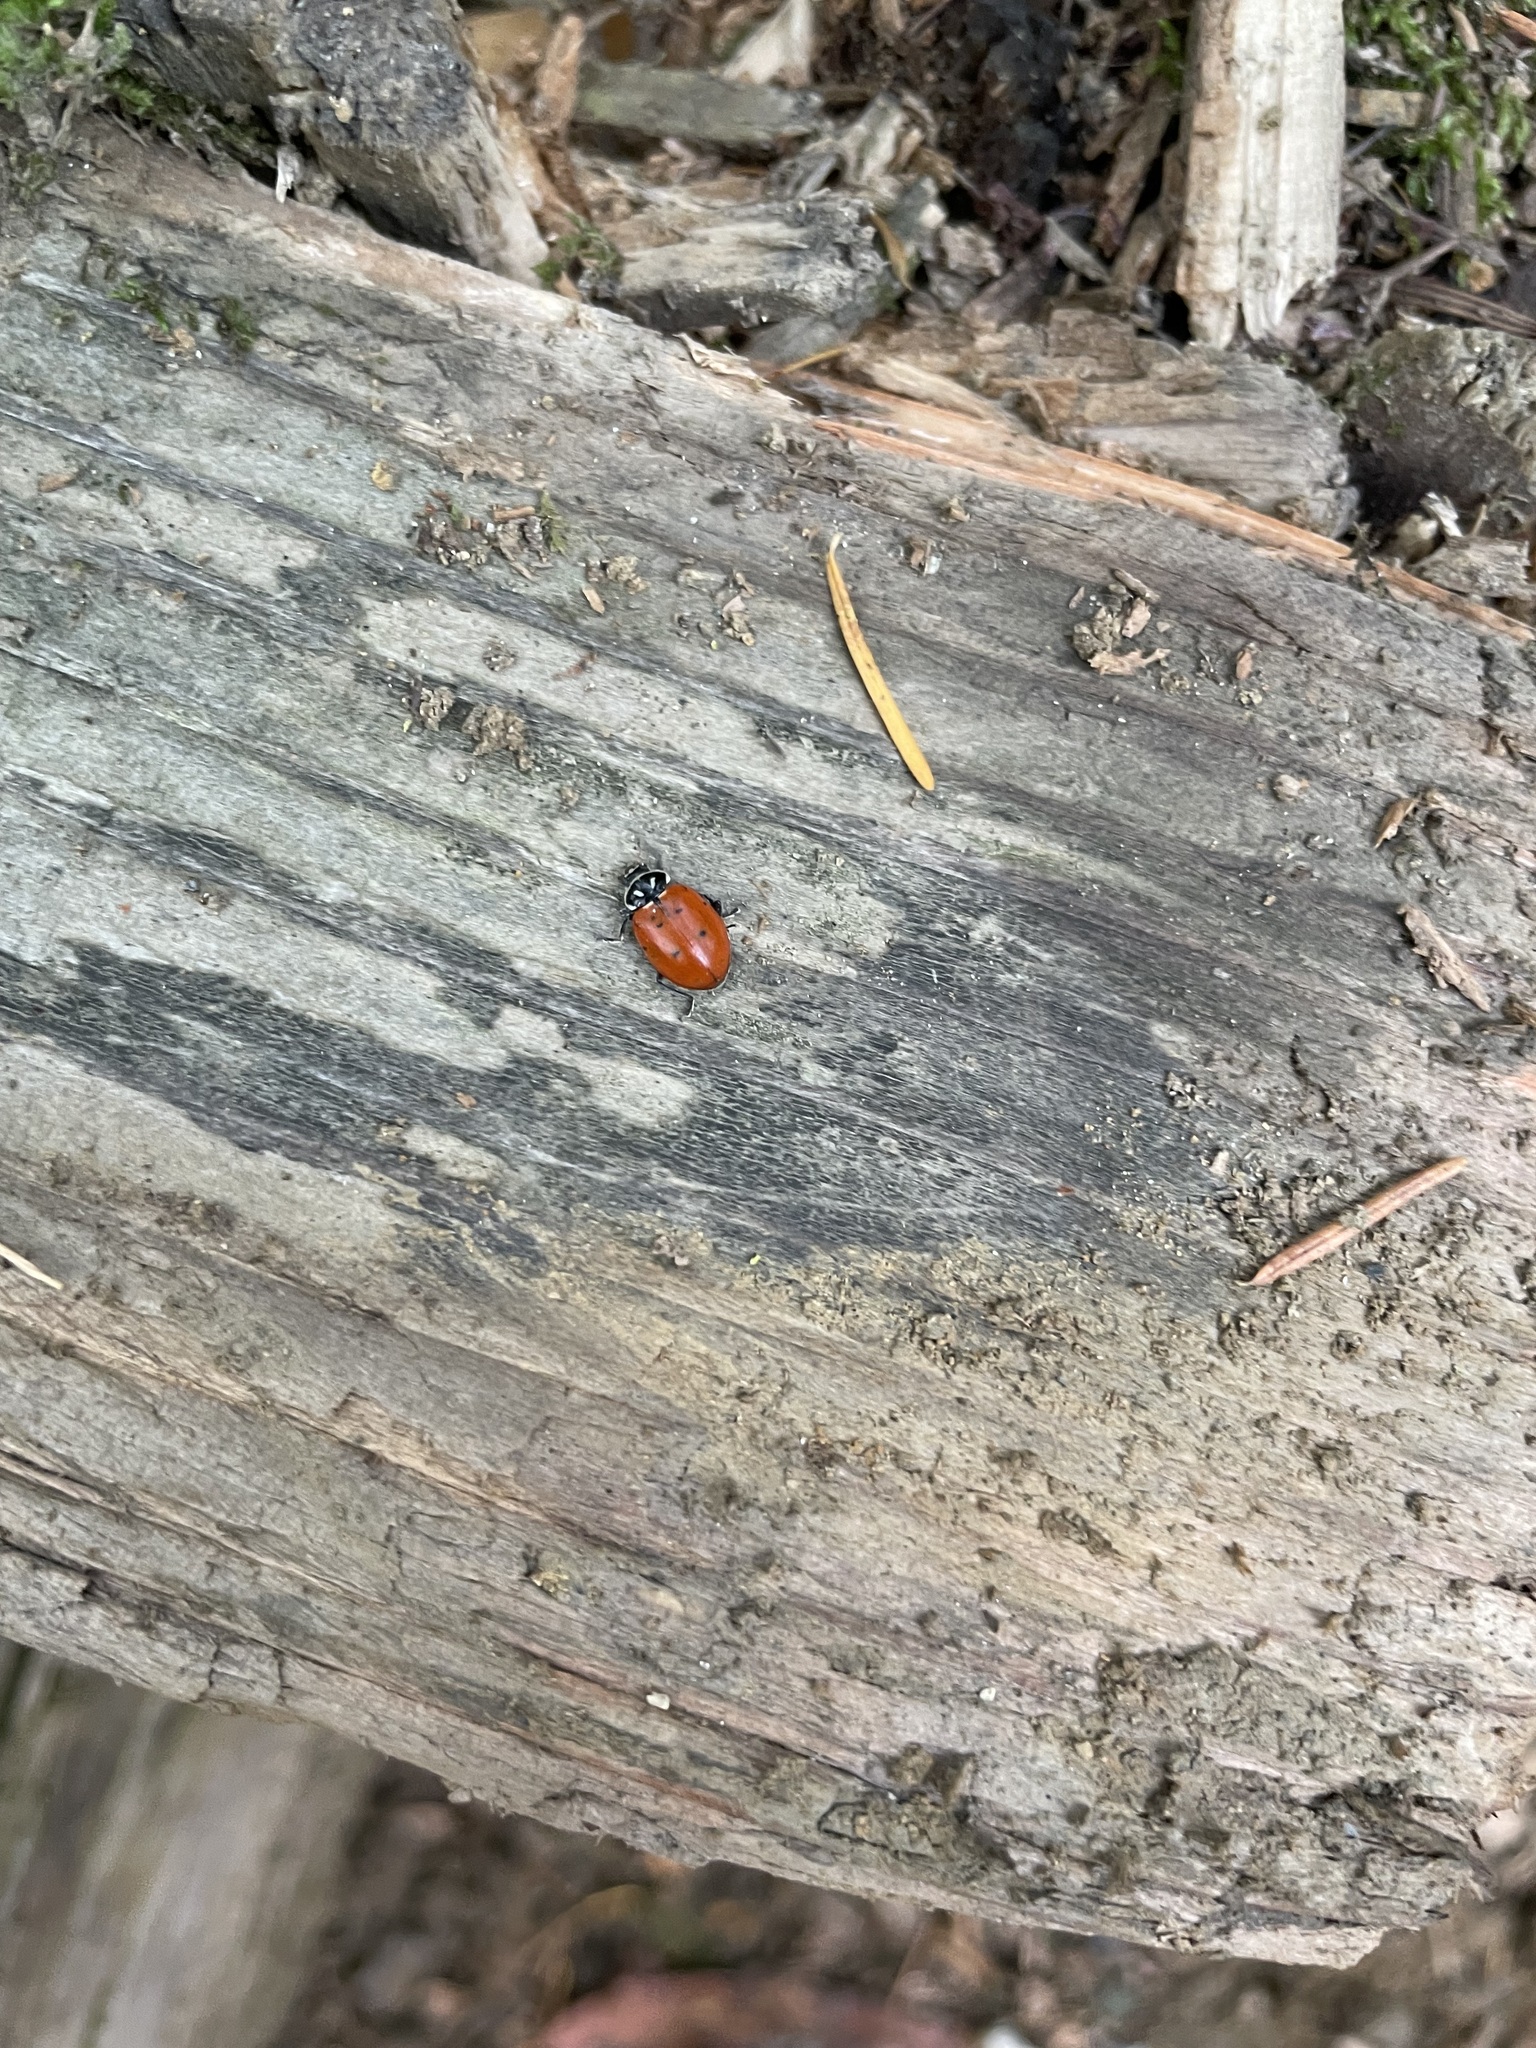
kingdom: Animalia
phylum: Arthropoda
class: Insecta
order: Coleoptera
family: Coccinellidae
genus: Hippodamia
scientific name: Hippodamia convergens
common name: Convergent lady beetle
